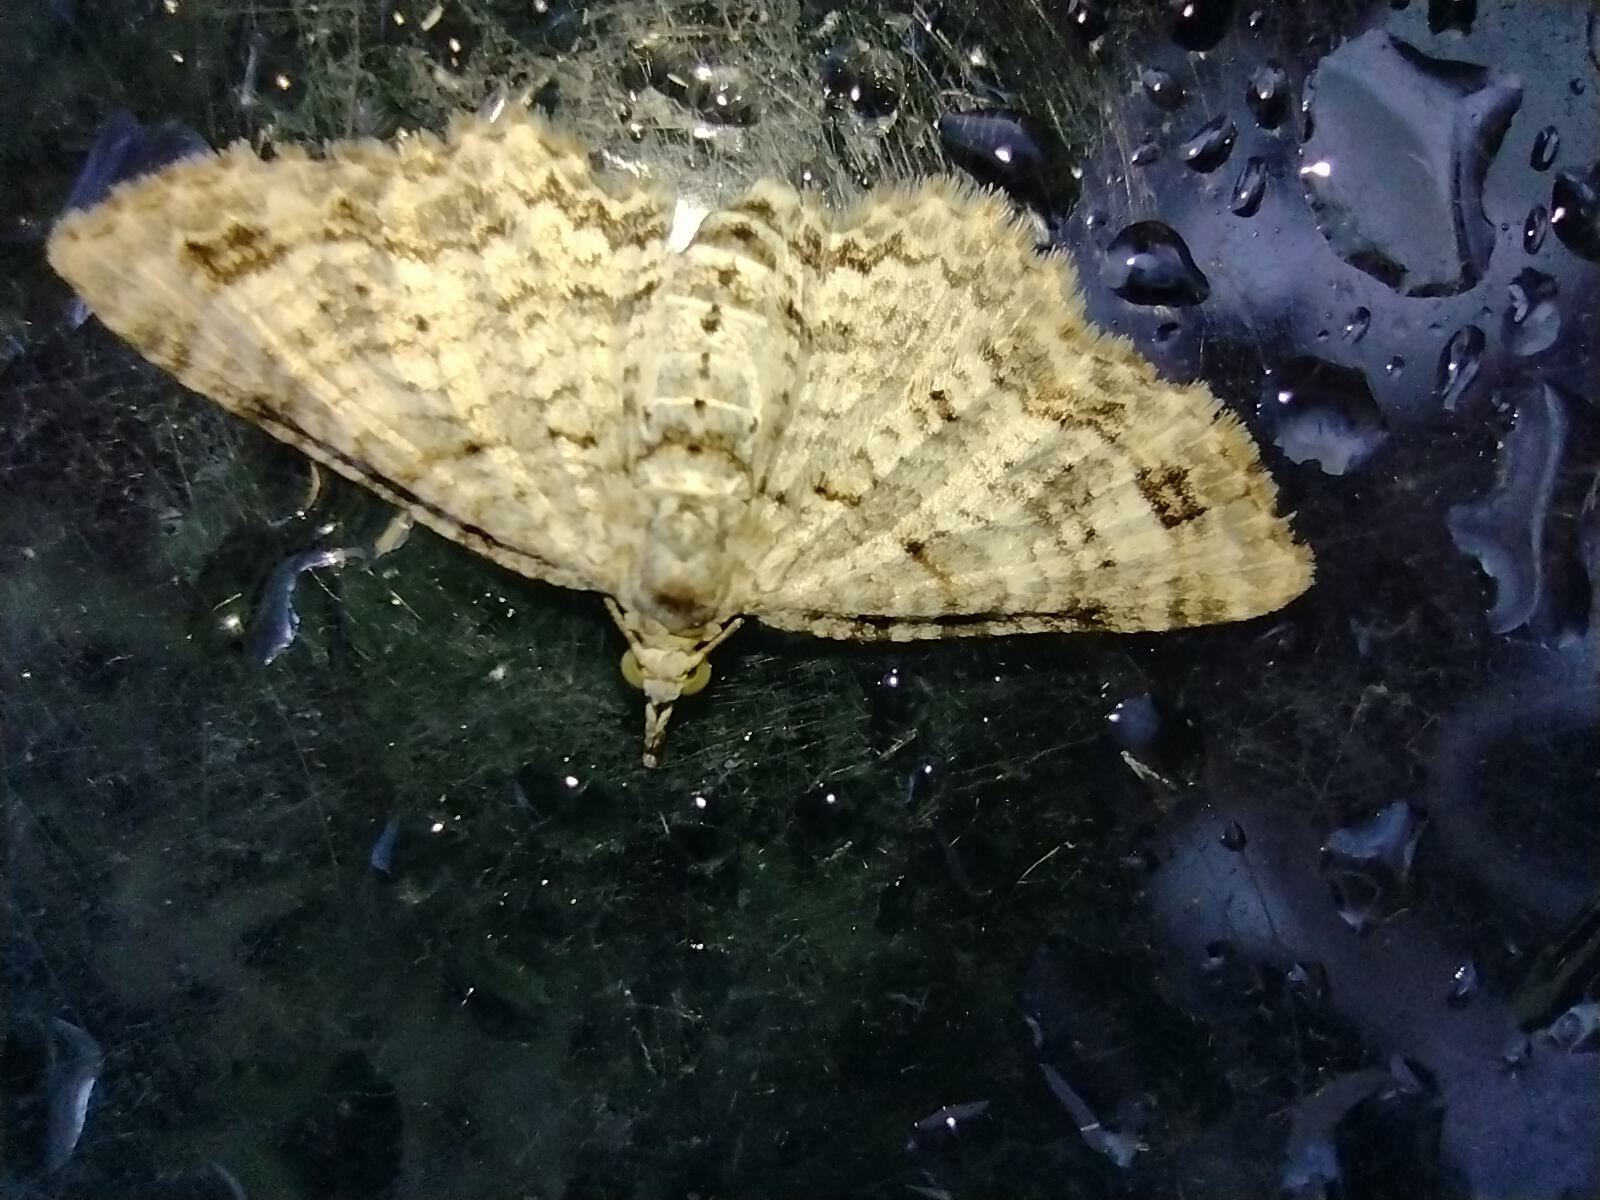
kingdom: Animalia
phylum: Arthropoda
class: Insecta
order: Lepidoptera
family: Geometridae
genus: Eupithecia
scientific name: Eupithecia monticolens
